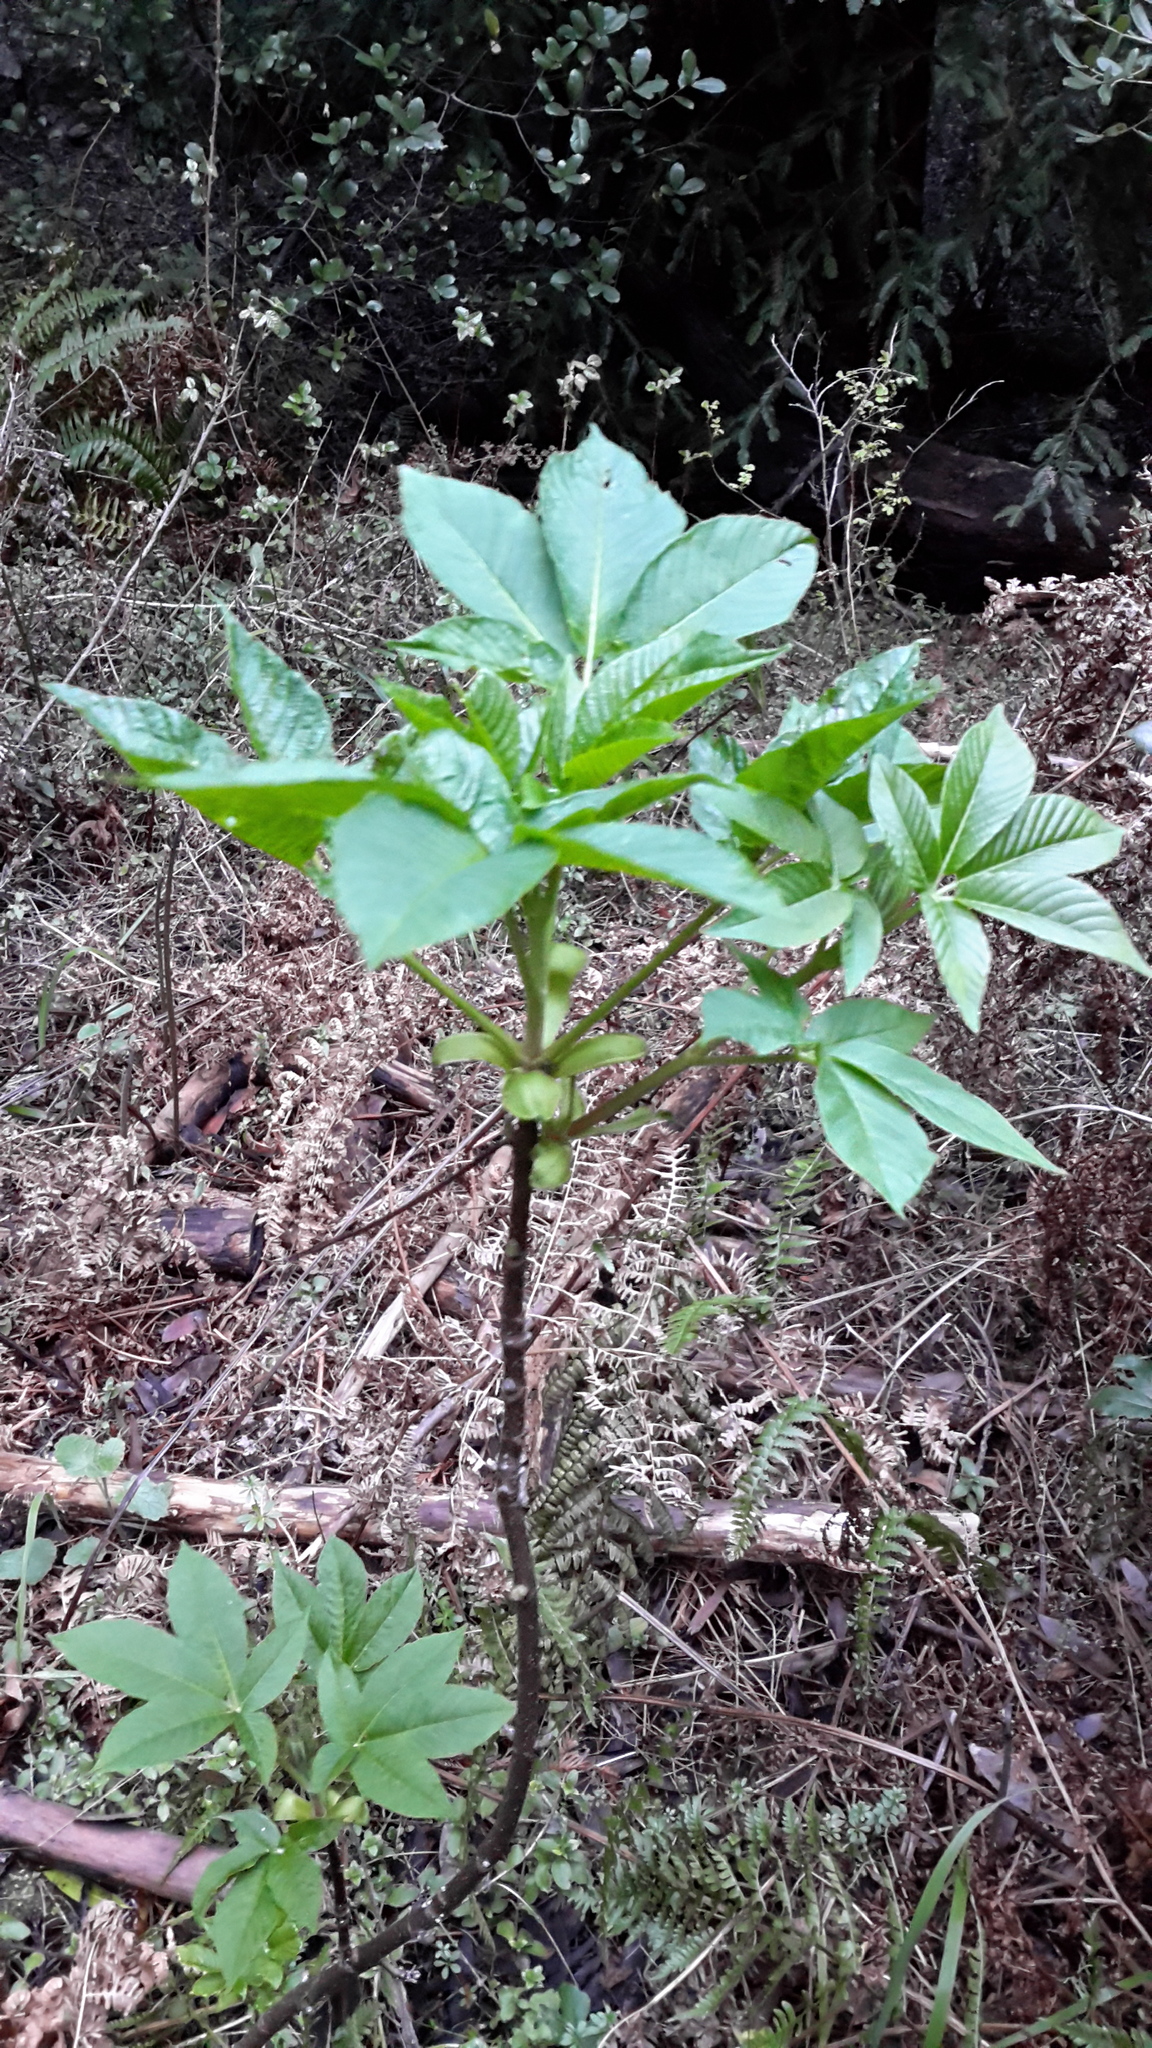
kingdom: Plantae
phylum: Tracheophyta
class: Magnoliopsida
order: Sapindales
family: Sapindaceae
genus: Aesculus
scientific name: Aesculus californica
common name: California buckeye
